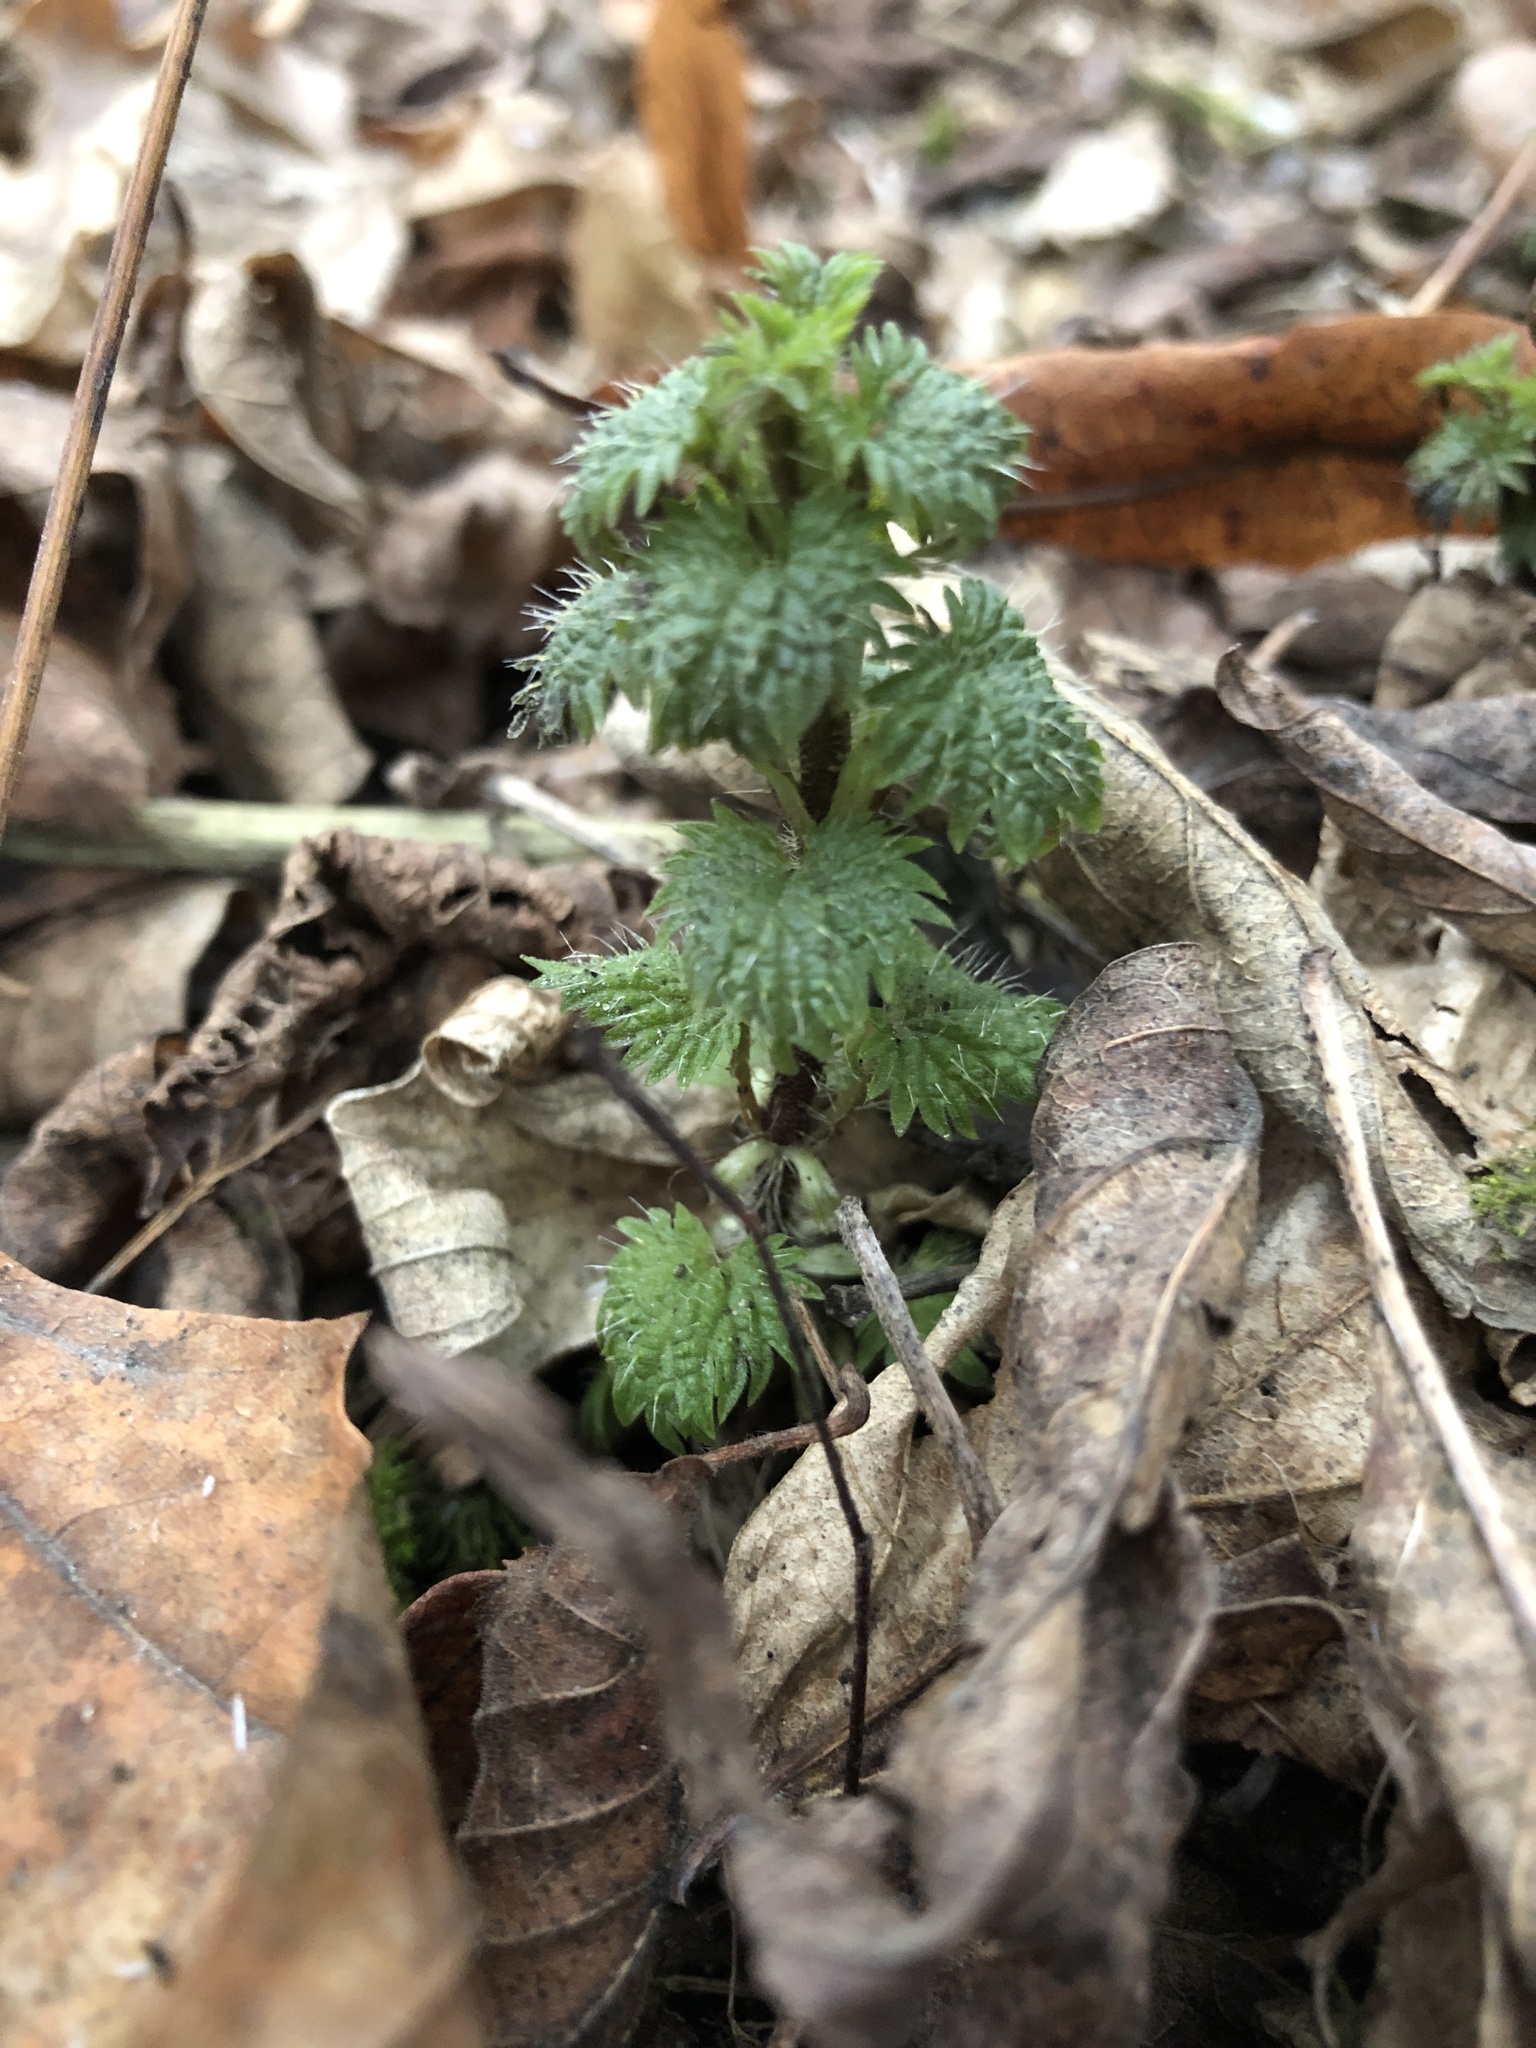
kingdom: Plantae
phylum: Tracheophyta
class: Magnoliopsida
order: Rosales
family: Urticaceae
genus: Urtica
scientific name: Urtica dioica
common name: Common nettle
